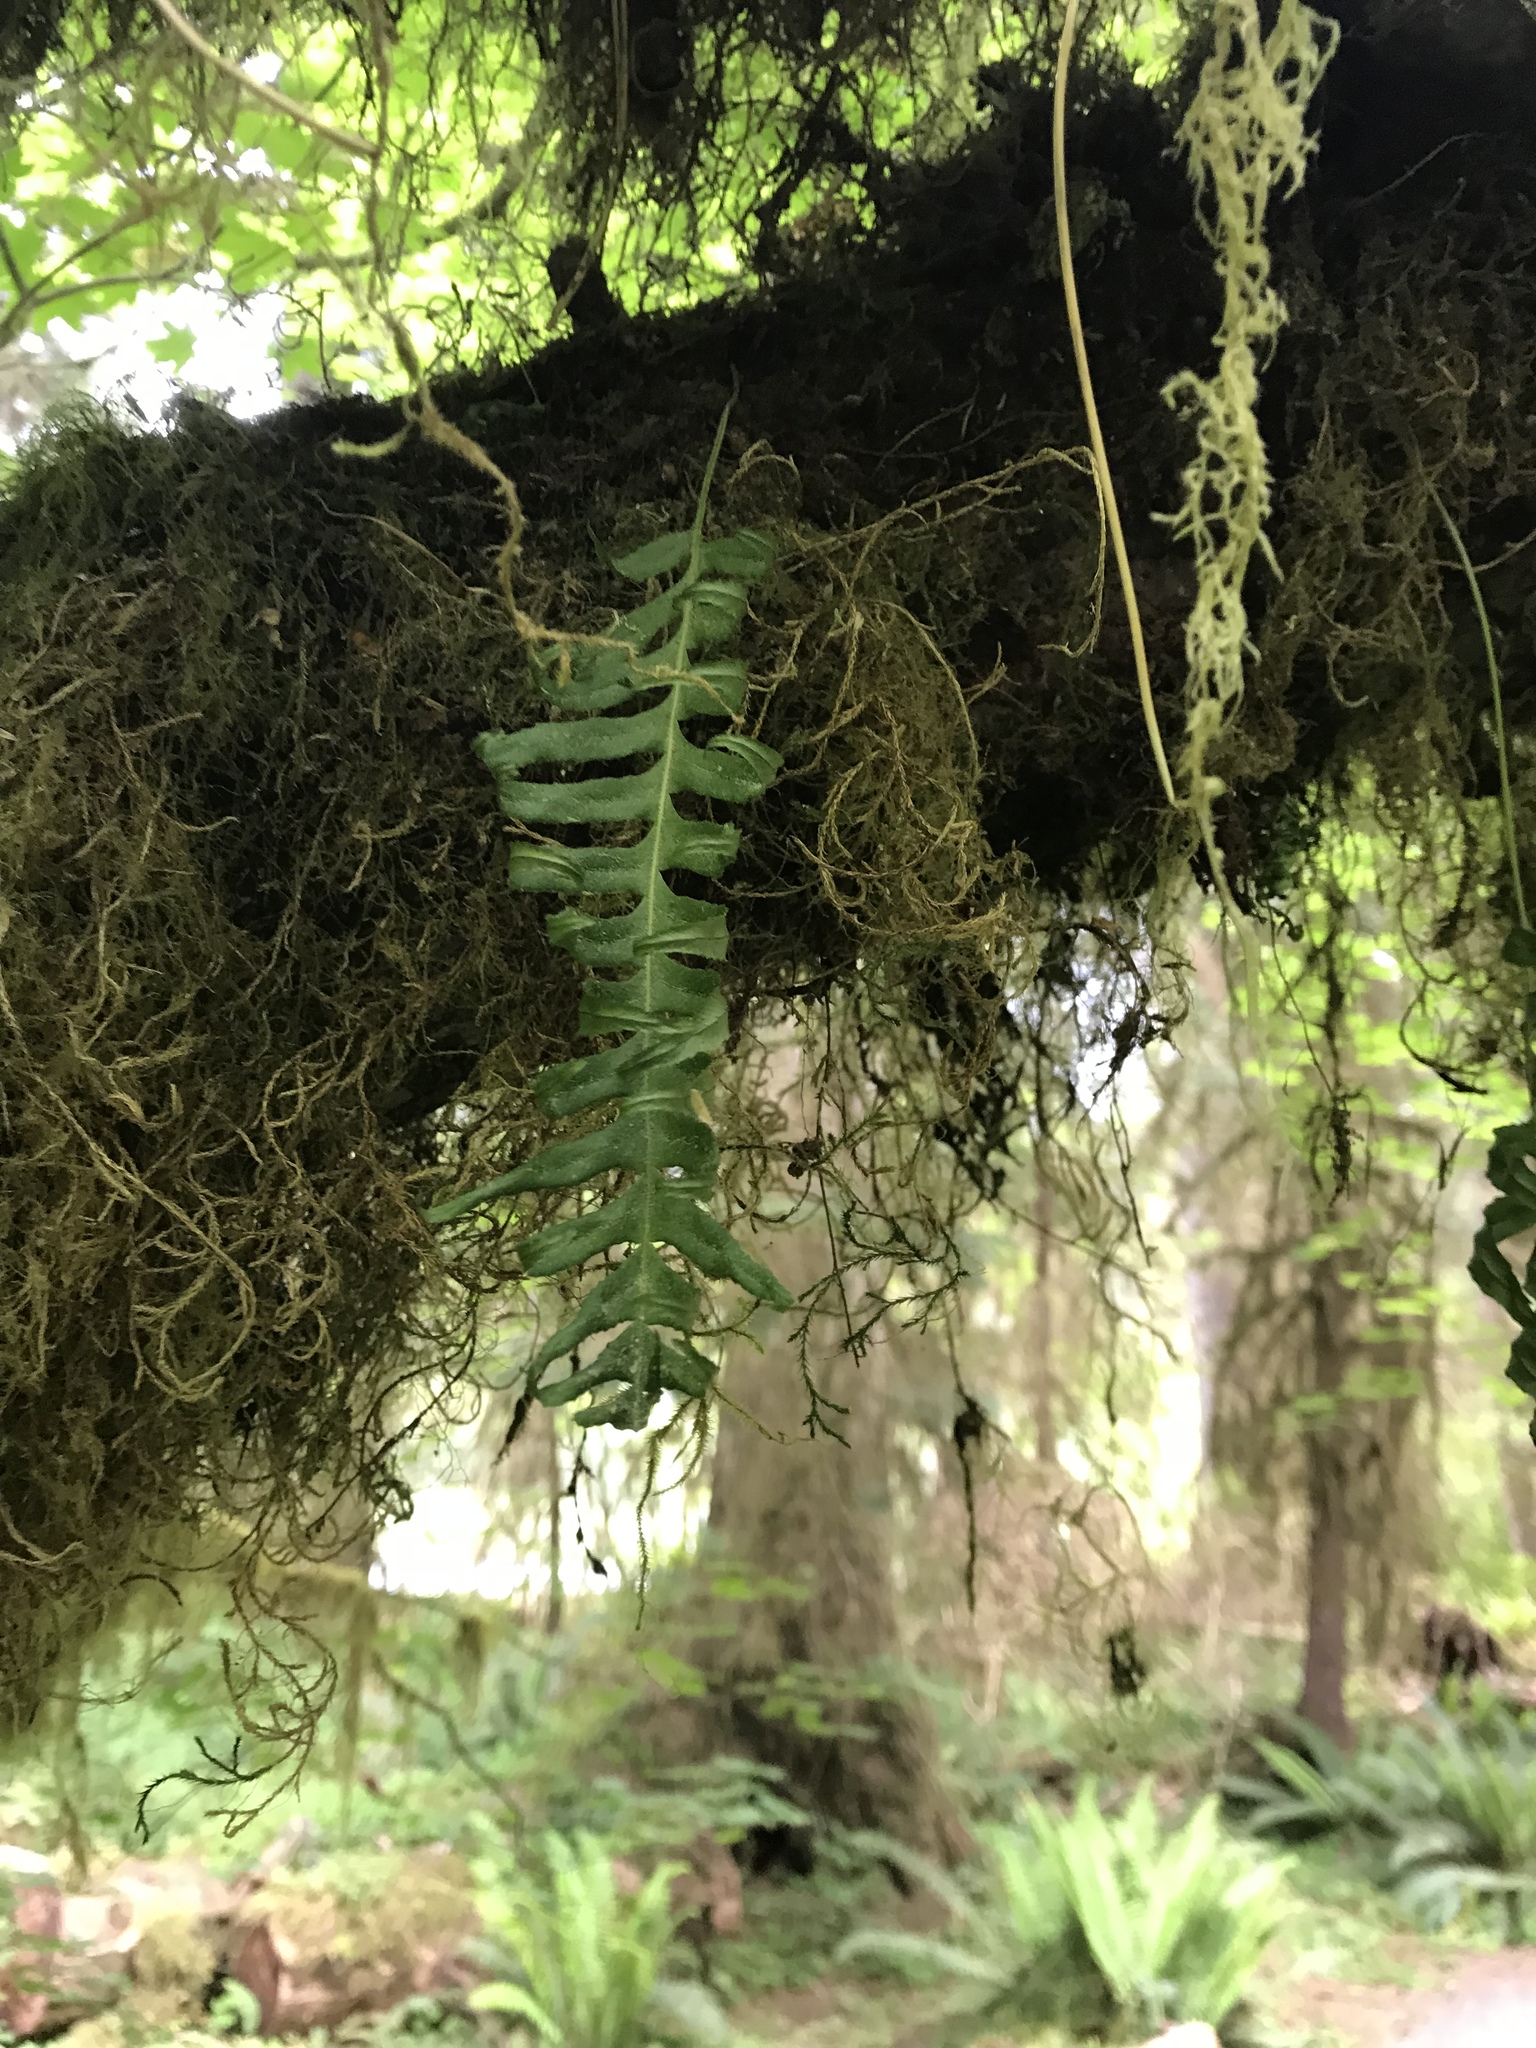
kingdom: Plantae
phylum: Tracheophyta
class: Polypodiopsida
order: Polypodiales
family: Polypodiaceae
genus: Polypodium
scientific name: Polypodium glycyrrhiza
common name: Licorice fern
